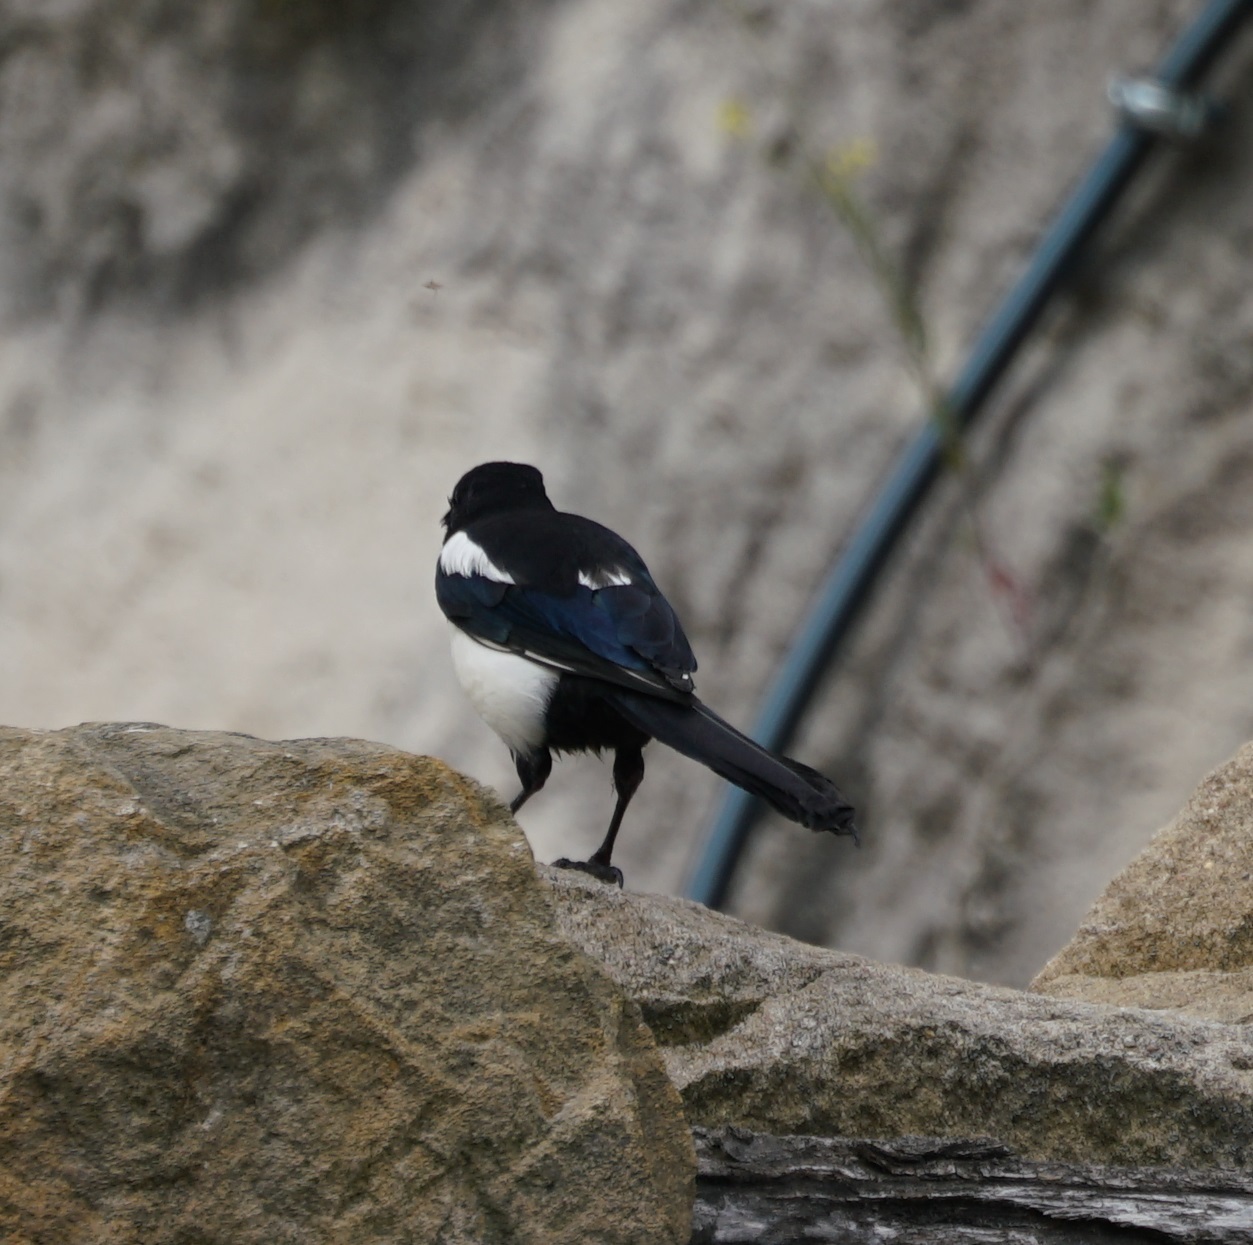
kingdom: Animalia
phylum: Chordata
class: Aves
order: Passeriformes
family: Corvidae
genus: Pica
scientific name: Pica pica
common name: Eurasian magpie
